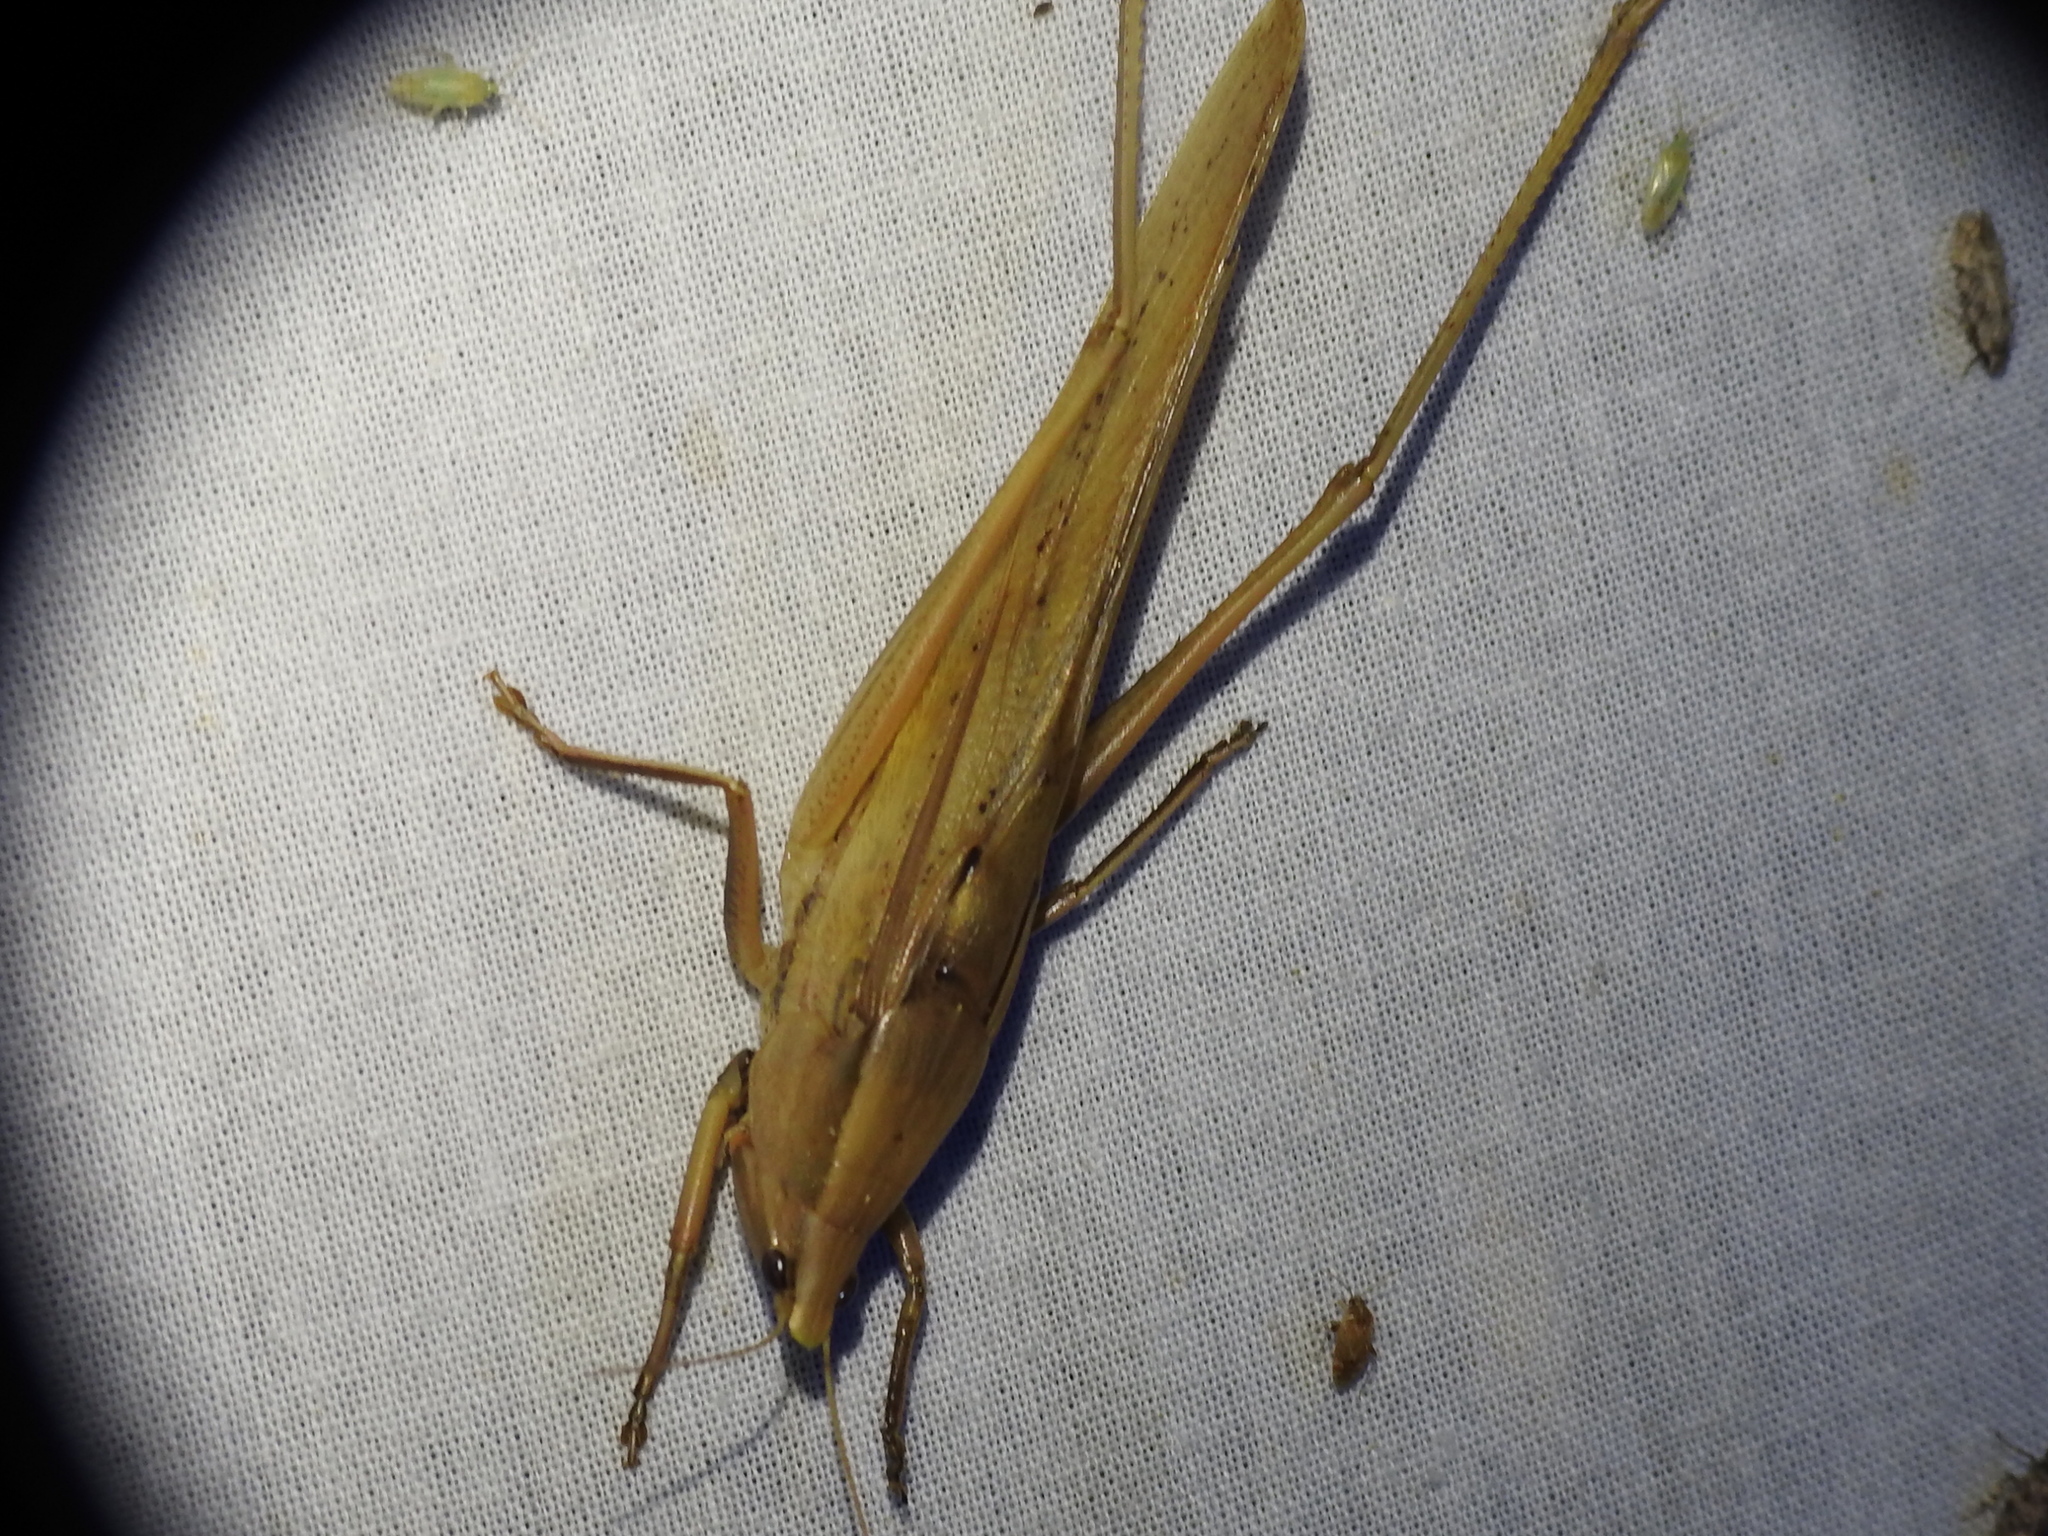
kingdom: Animalia
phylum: Arthropoda
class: Insecta
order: Orthoptera
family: Tettigoniidae
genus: Neoconocephalus
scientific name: Neoconocephalus triops
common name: Broad-tipped conehead
